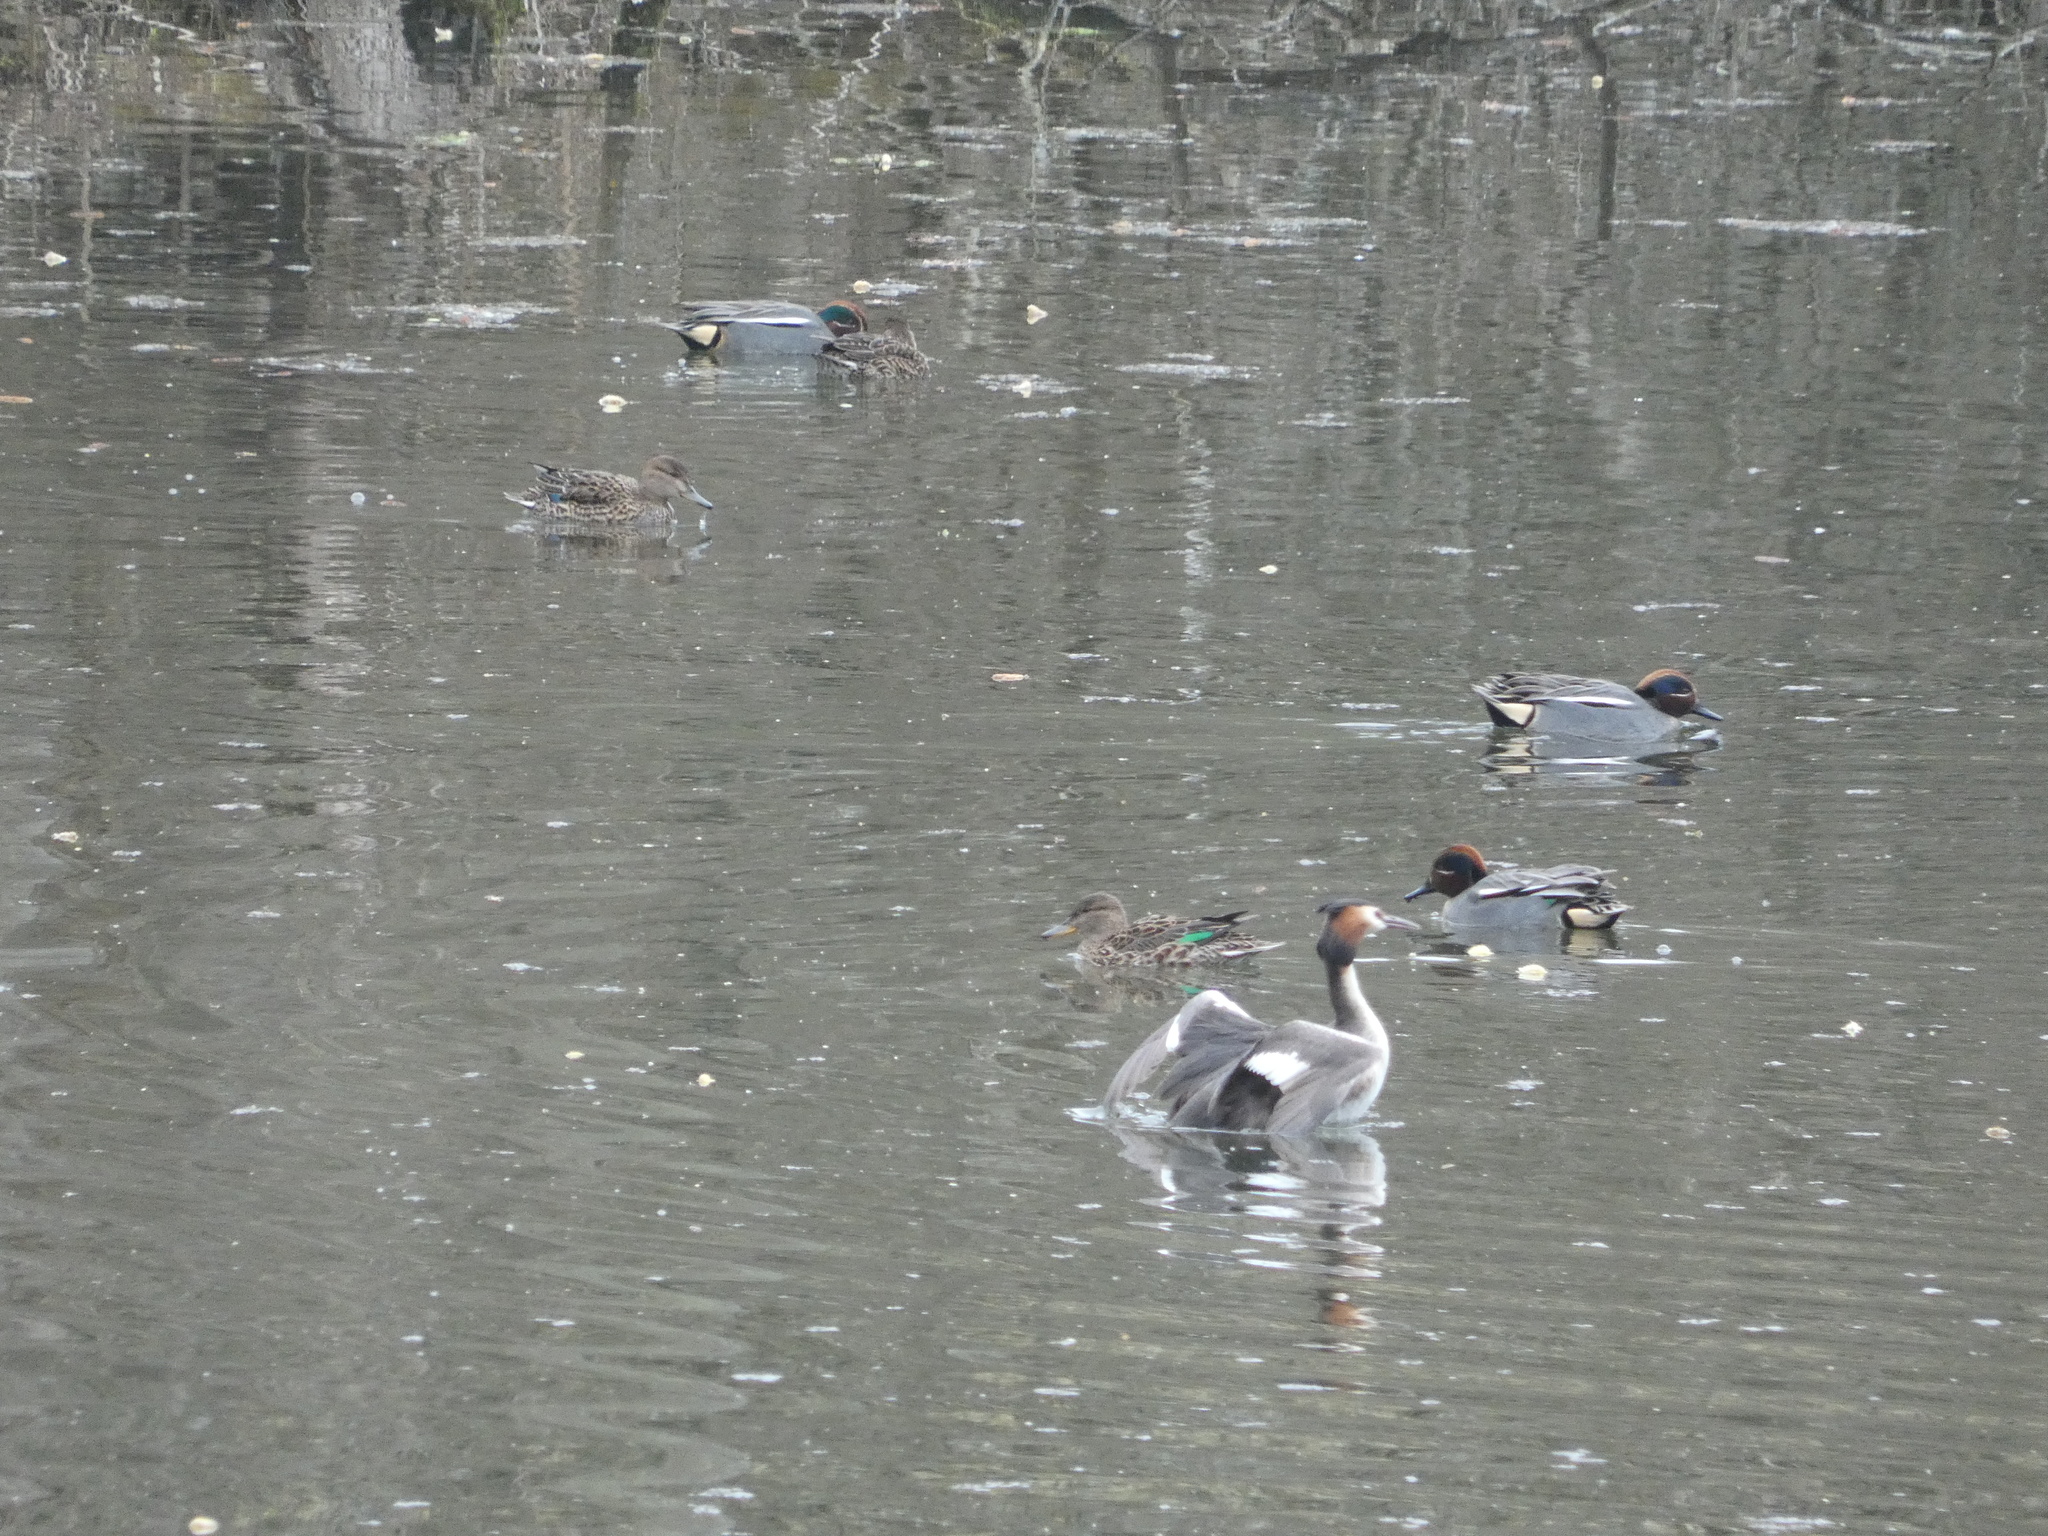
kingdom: Animalia
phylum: Chordata
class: Aves
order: Podicipediformes
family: Podicipedidae
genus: Podiceps
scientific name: Podiceps cristatus
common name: Great crested grebe
